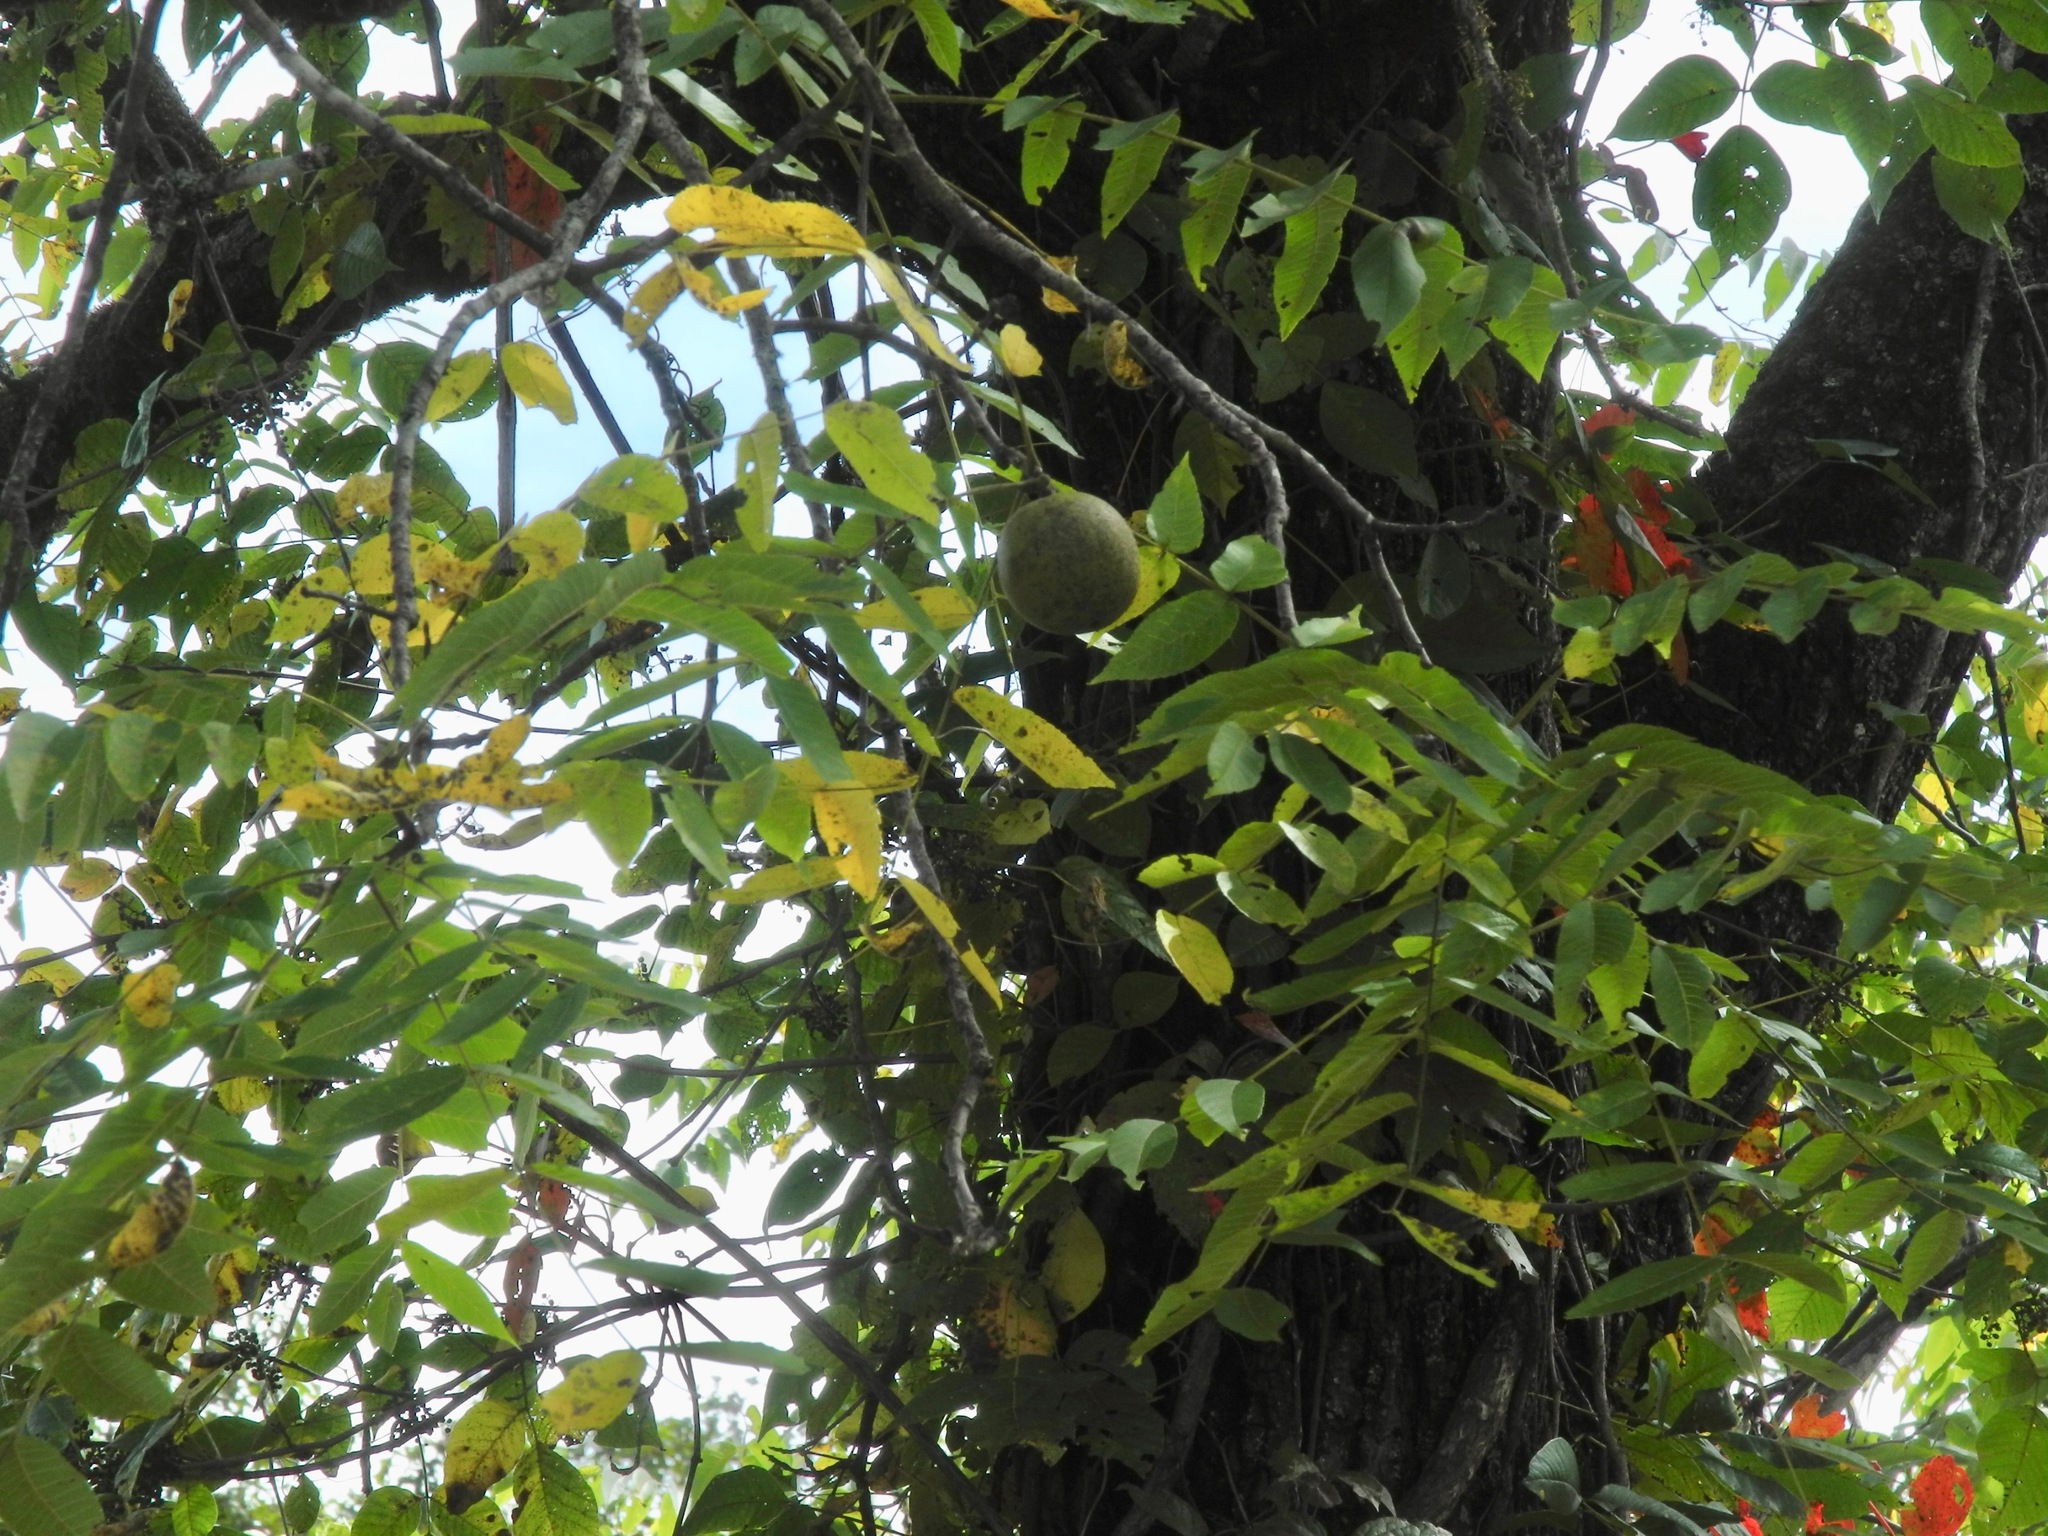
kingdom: Plantae
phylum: Tracheophyta
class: Magnoliopsida
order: Fagales
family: Juglandaceae
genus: Juglans
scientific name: Juglans nigra
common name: Black walnut
